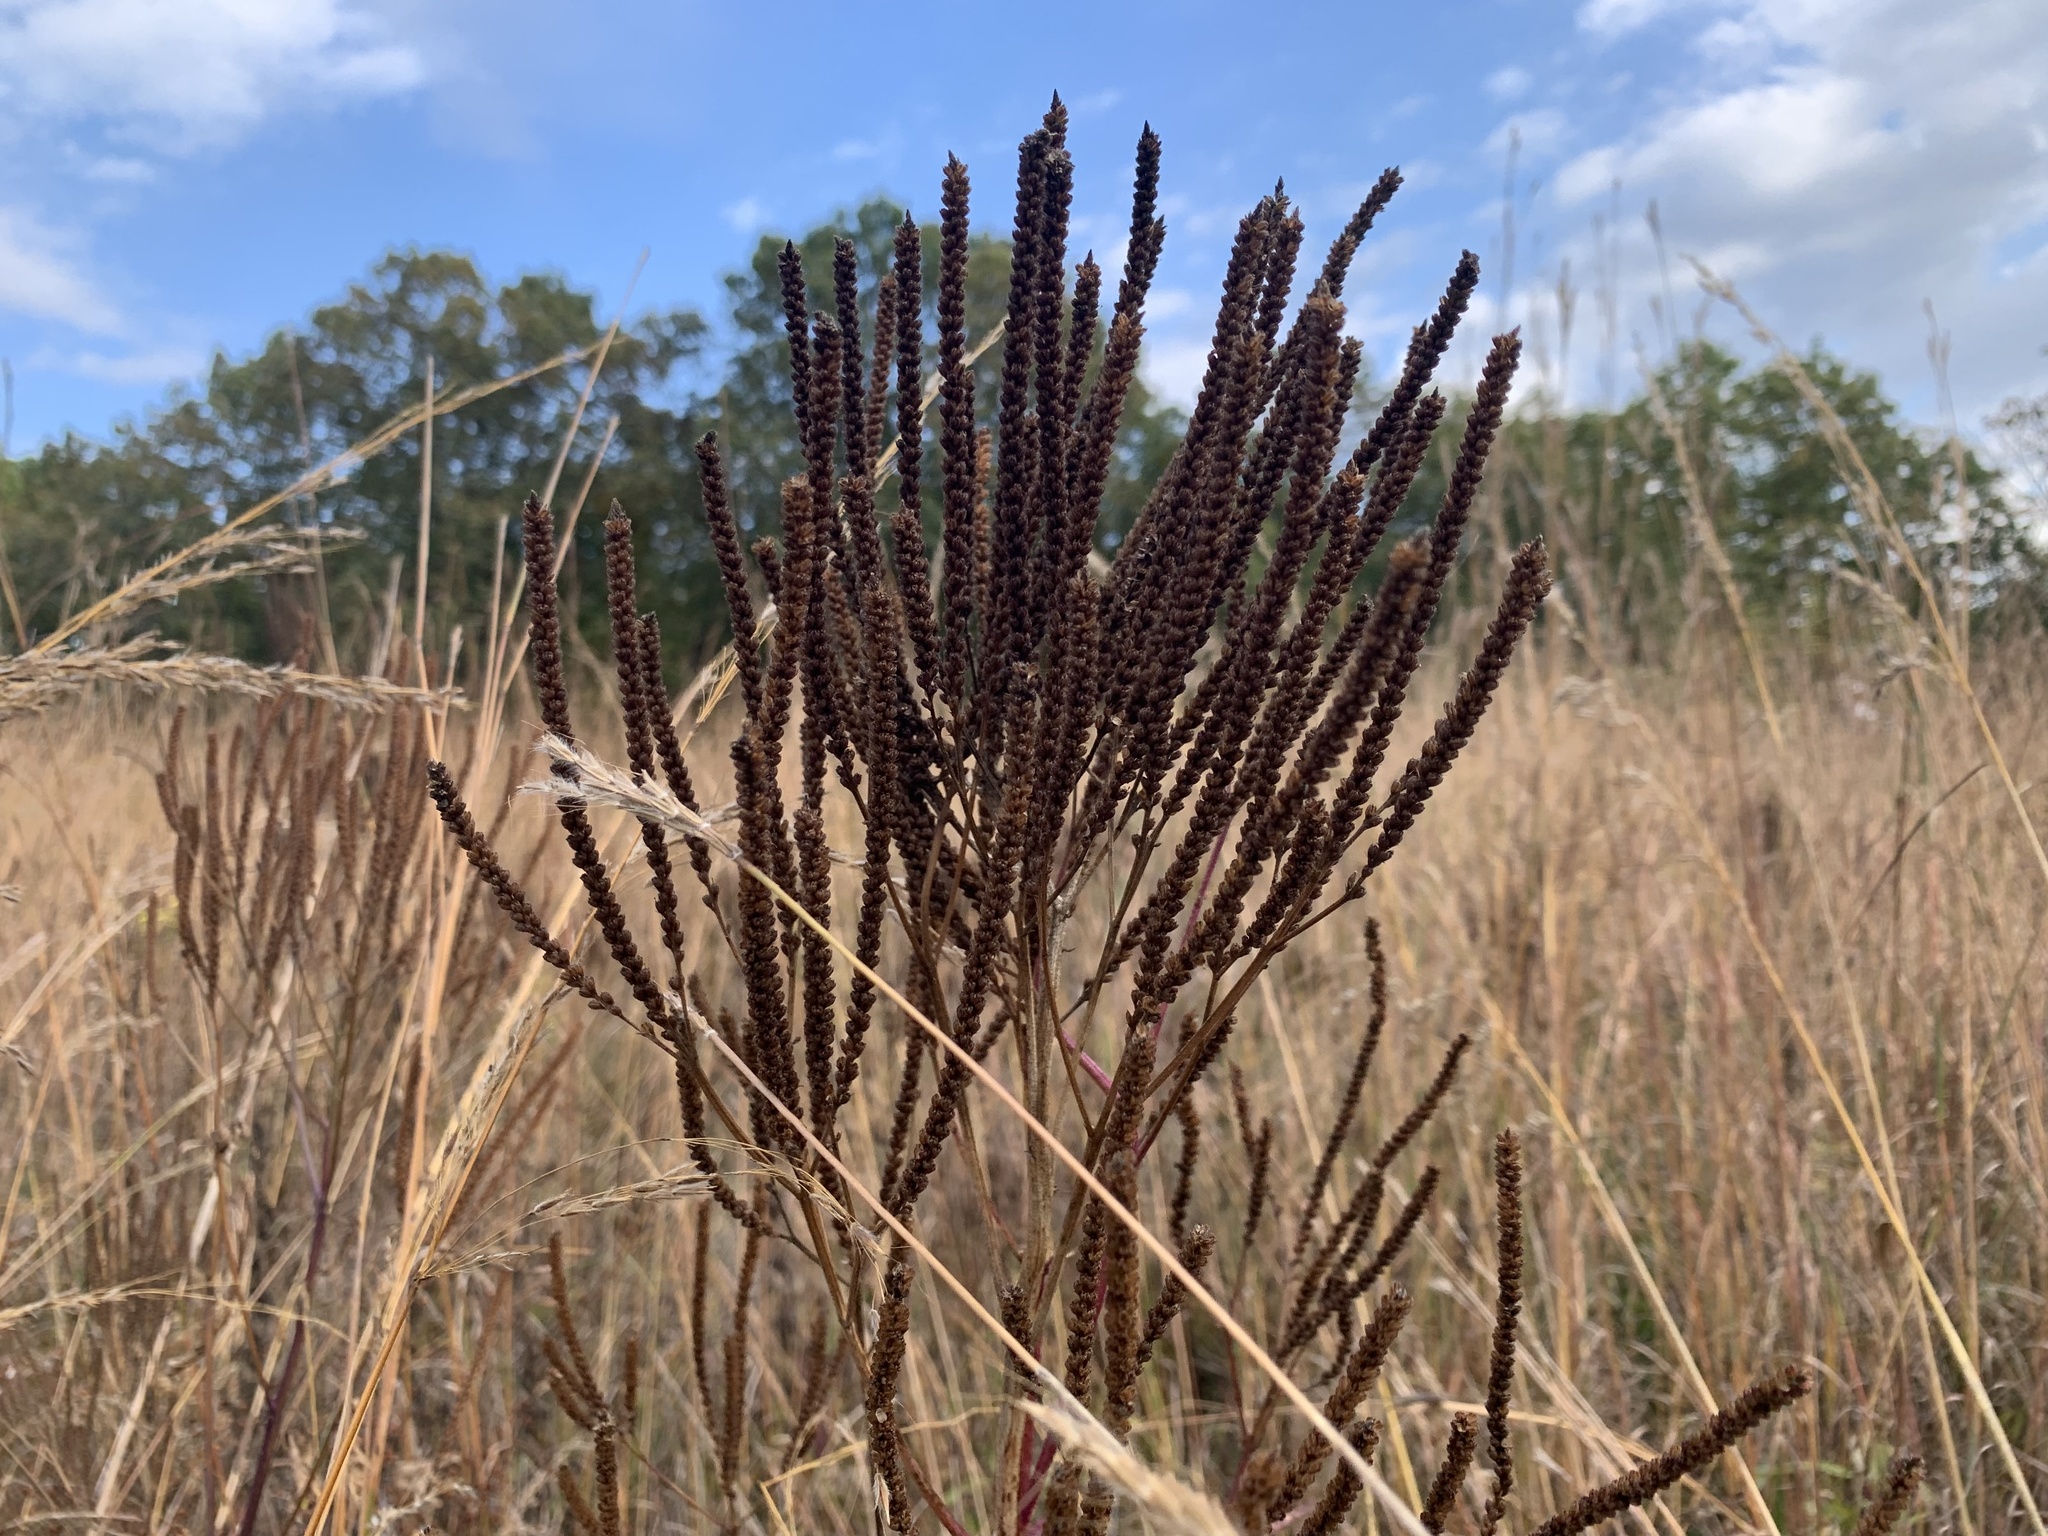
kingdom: Plantae
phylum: Tracheophyta
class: Magnoliopsida
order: Lamiales
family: Verbenaceae
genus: Verbena
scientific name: Verbena hastata
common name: American blue vervain
